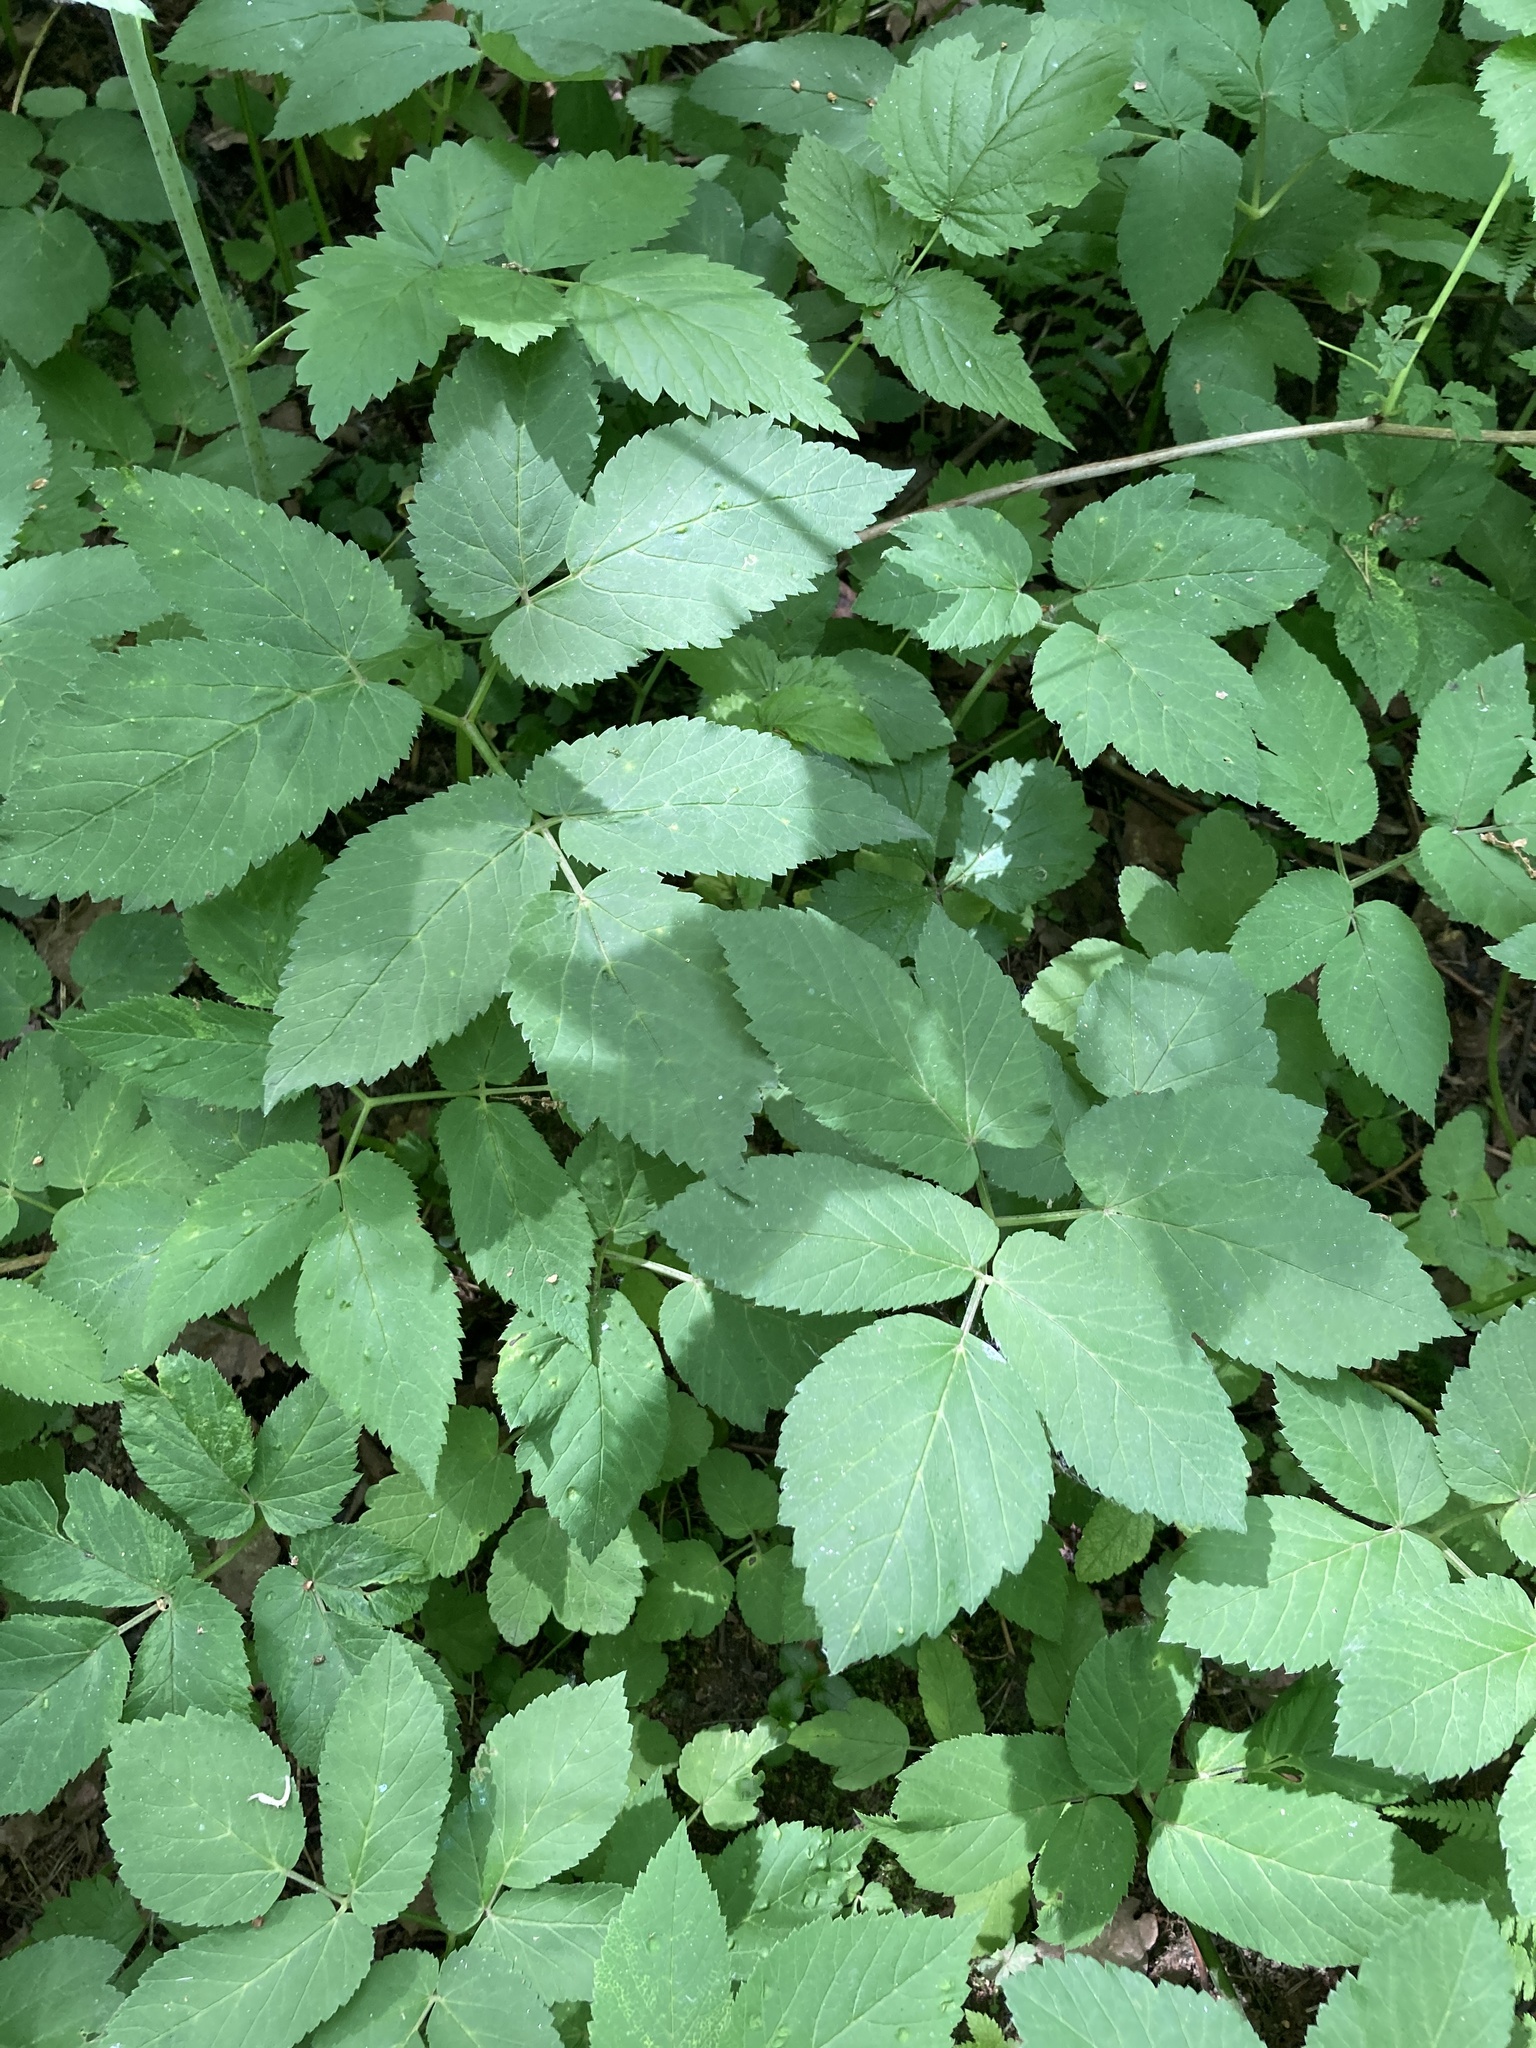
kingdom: Plantae
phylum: Tracheophyta
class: Magnoliopsida
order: Apiales
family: Apiaceae
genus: Aegopodium
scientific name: Aegopodium podagraria
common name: Ground-elder
